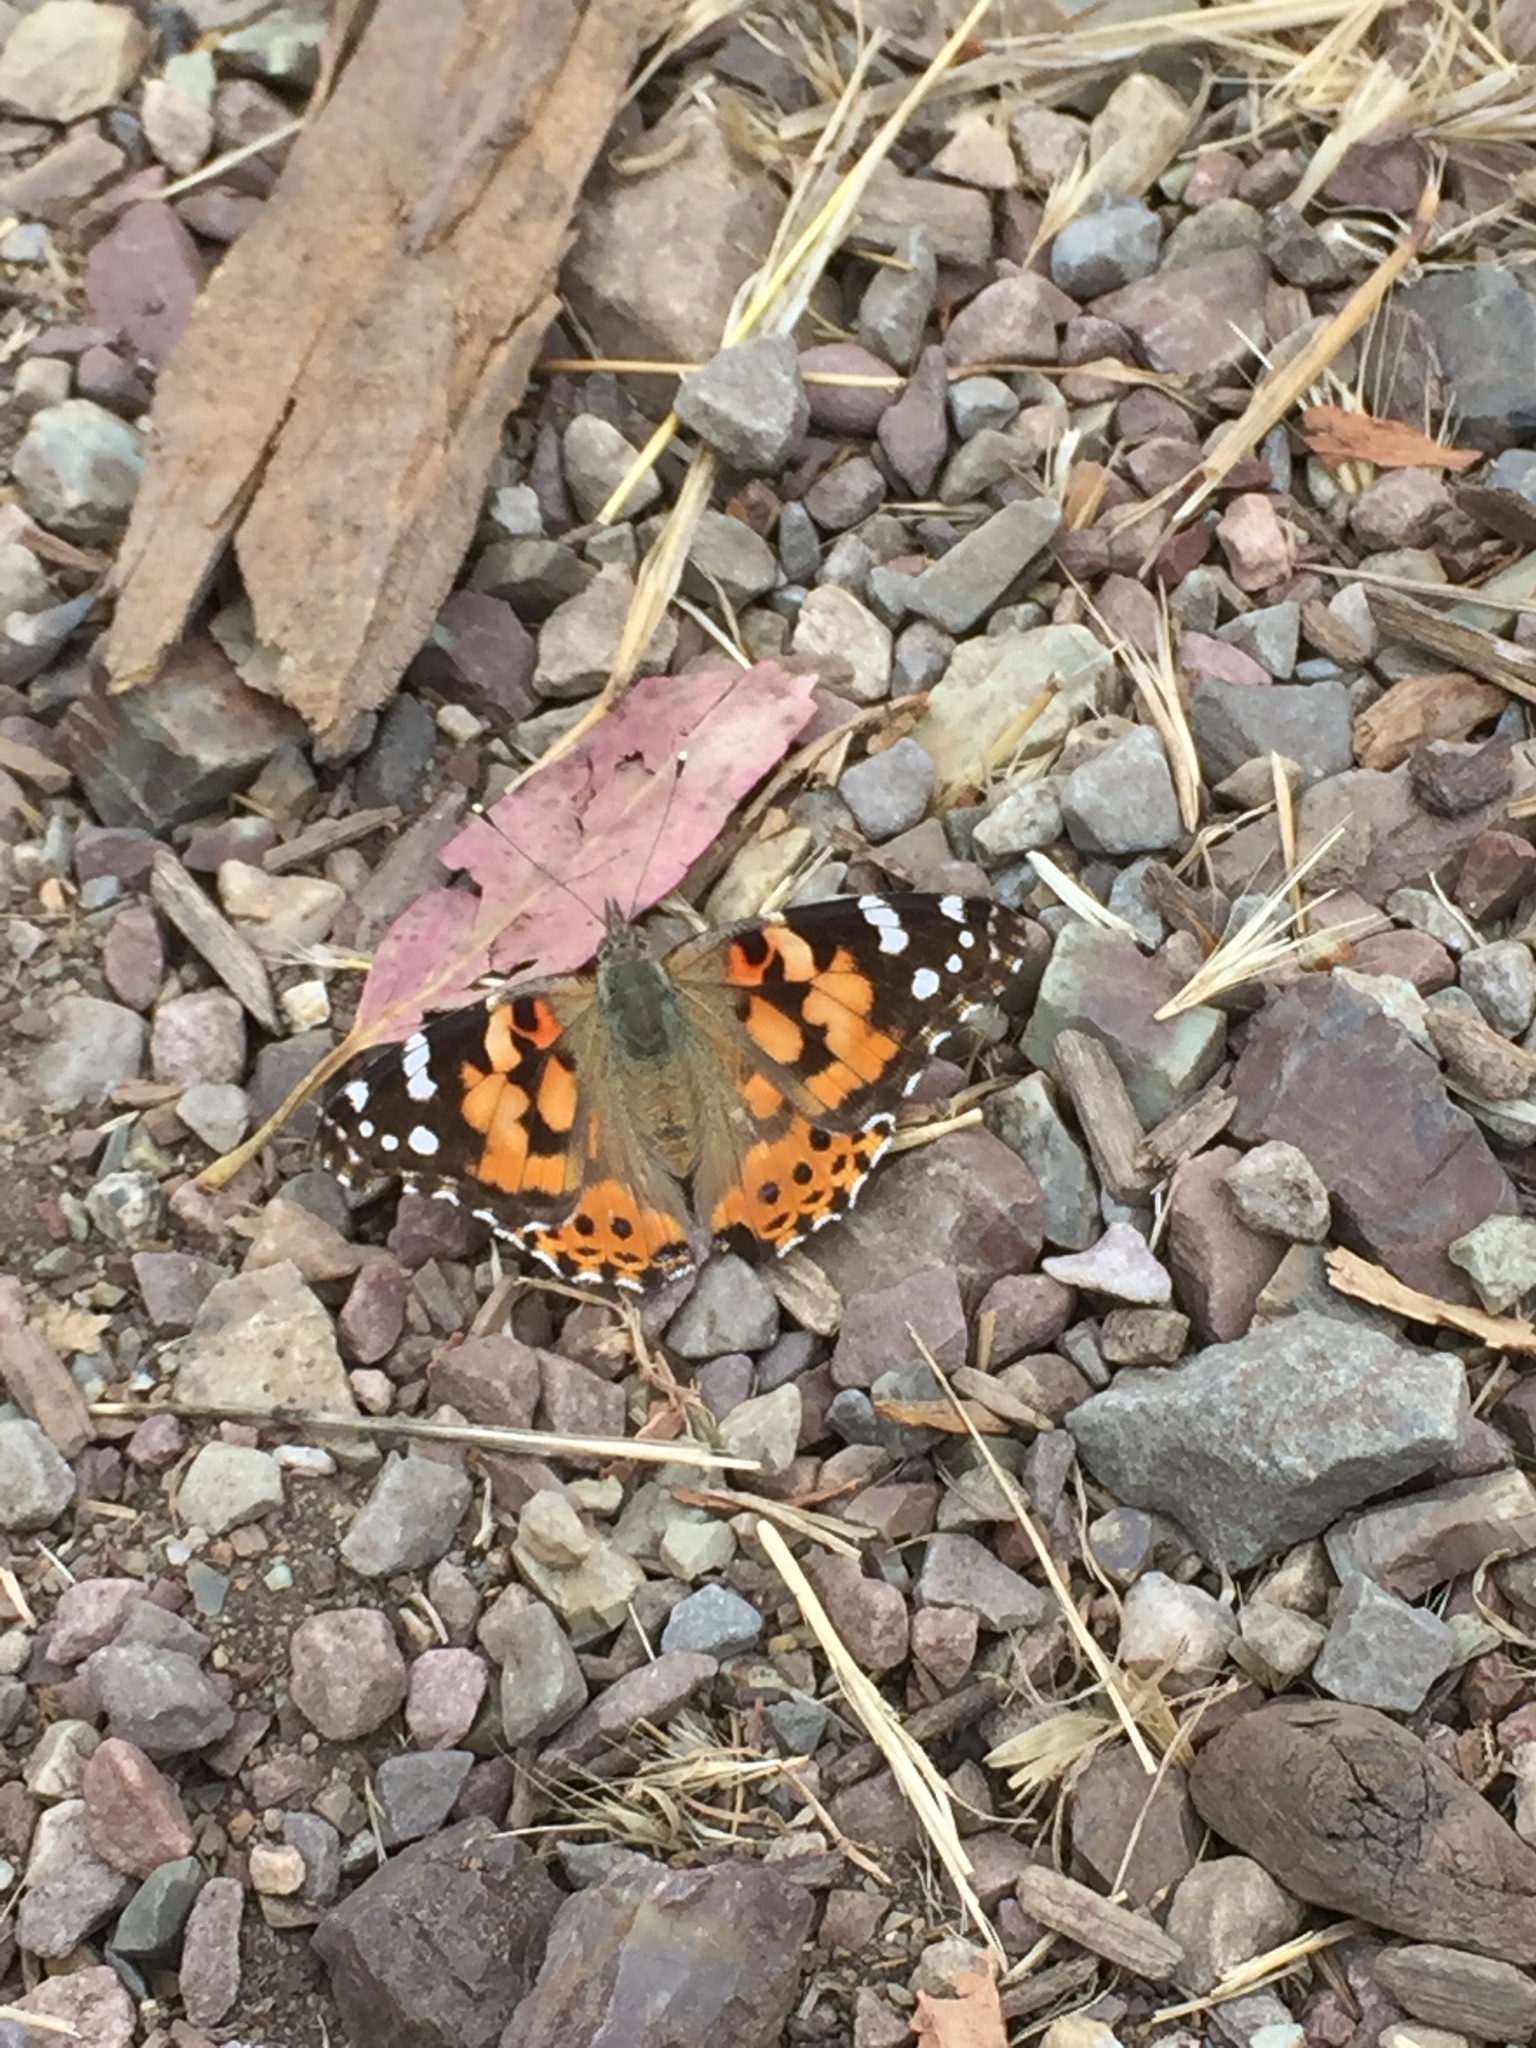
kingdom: Animalia
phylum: Arthropoda
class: Insecta
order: Lepidoptera
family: Nymphalidae
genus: Vanessa
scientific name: Vanessa cardui
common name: Painted lady
